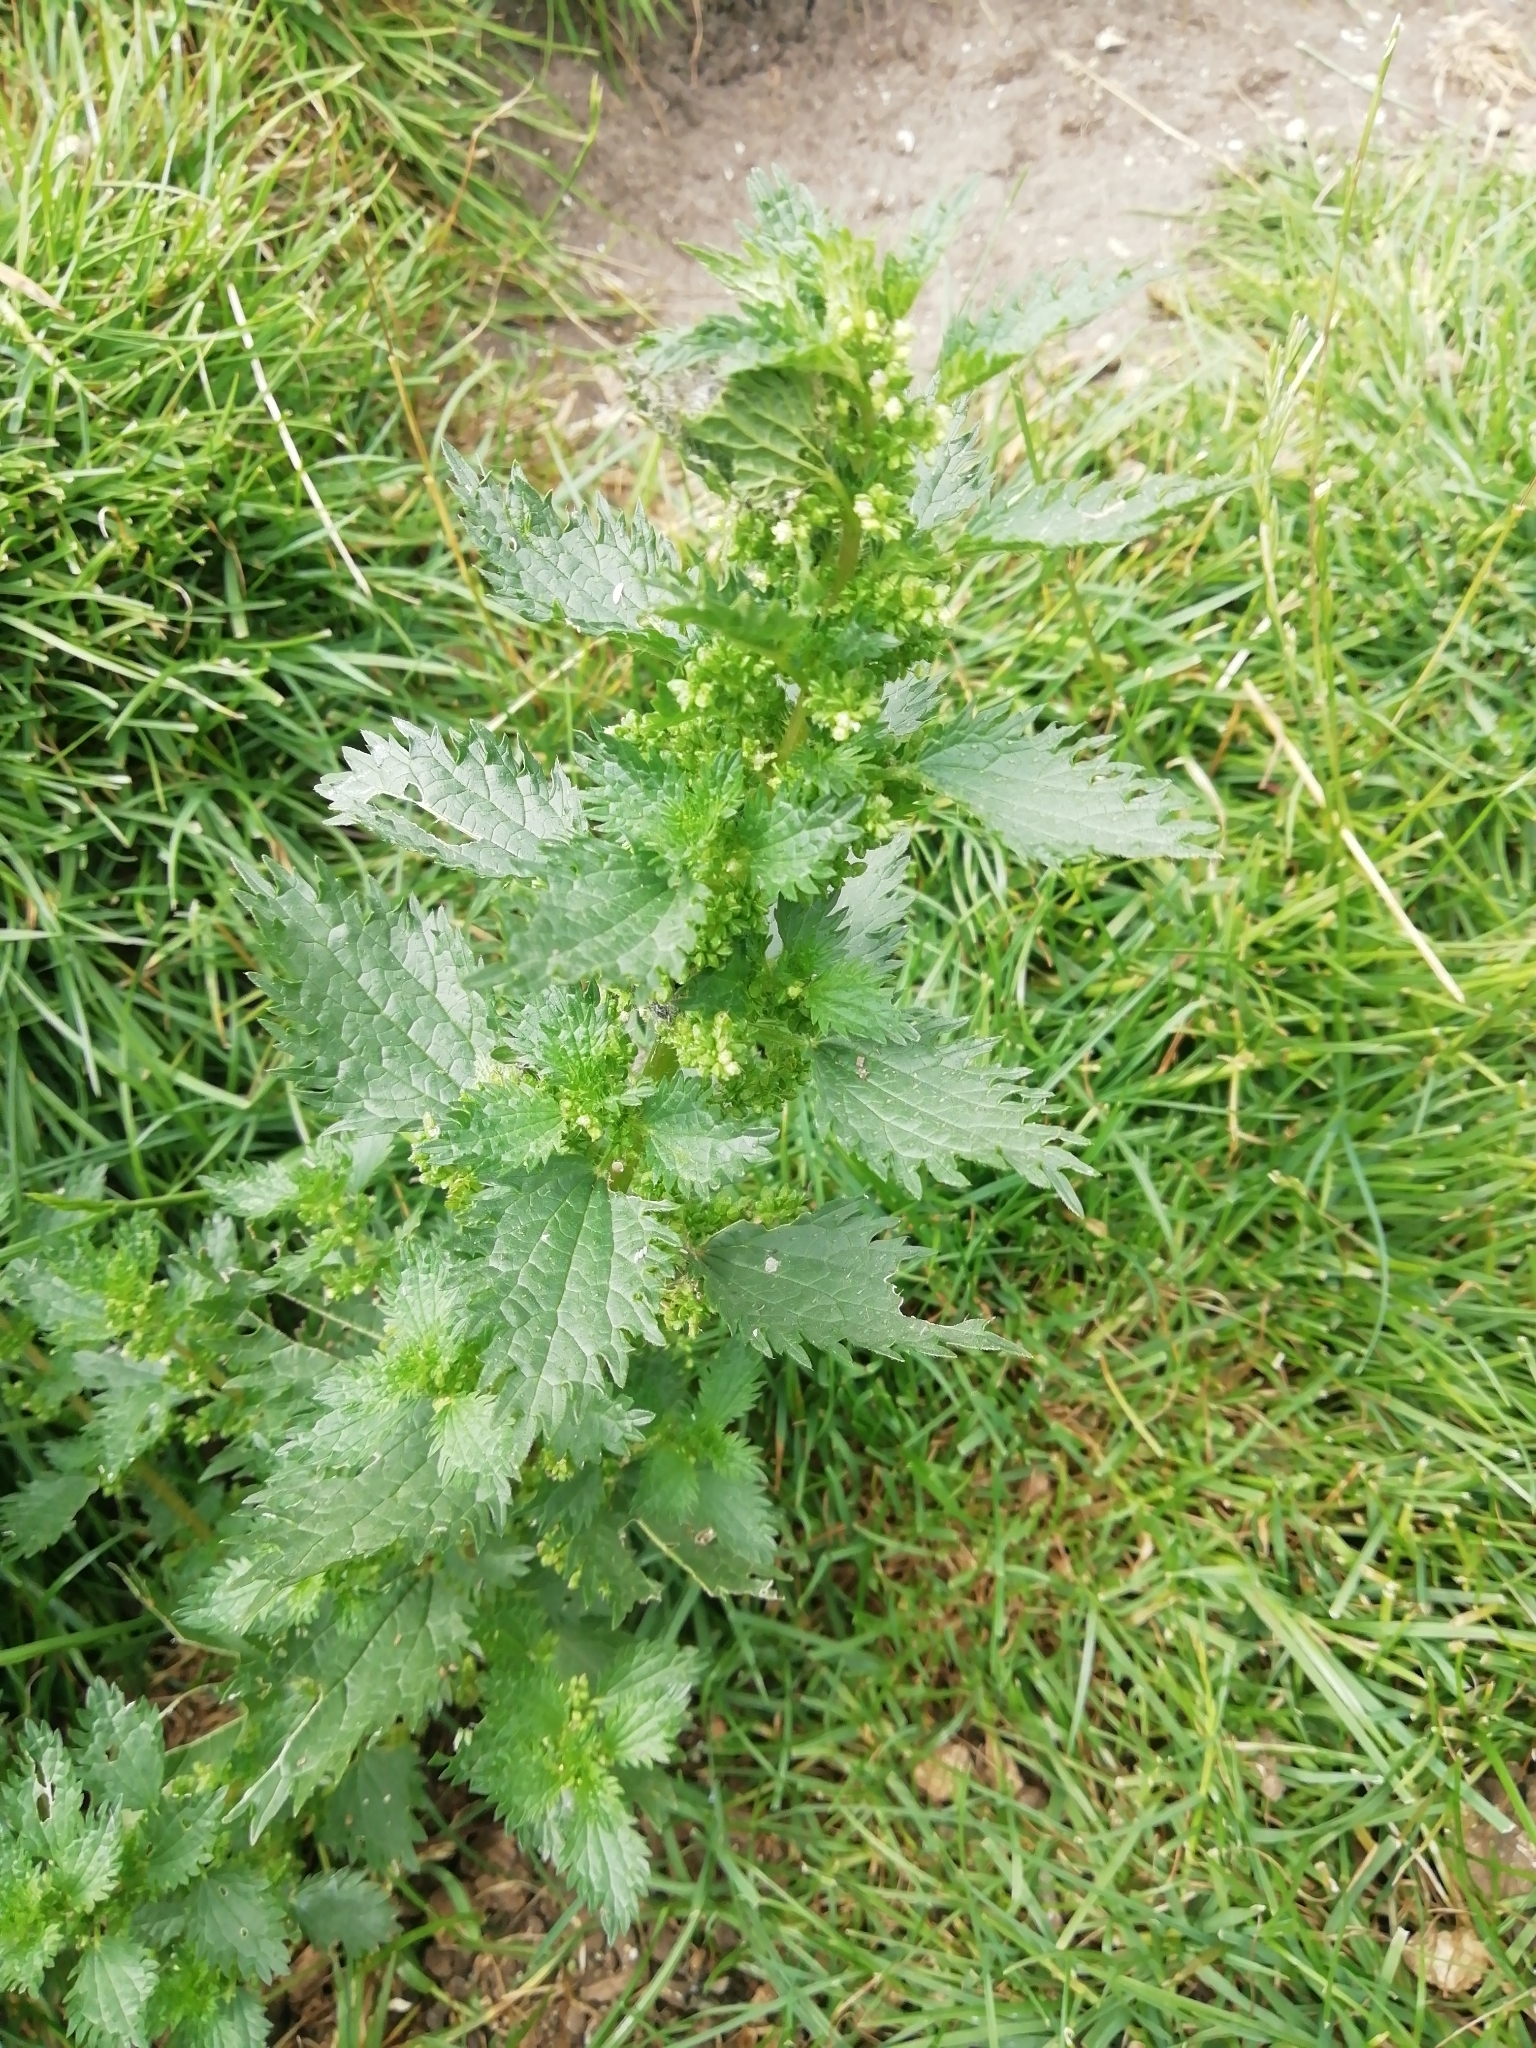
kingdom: Plantae
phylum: Tracheophyta
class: Magnoliopsida
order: Rosales
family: Urticaceae
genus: Urtica
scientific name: Urtica urens
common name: Dwarf nettle
